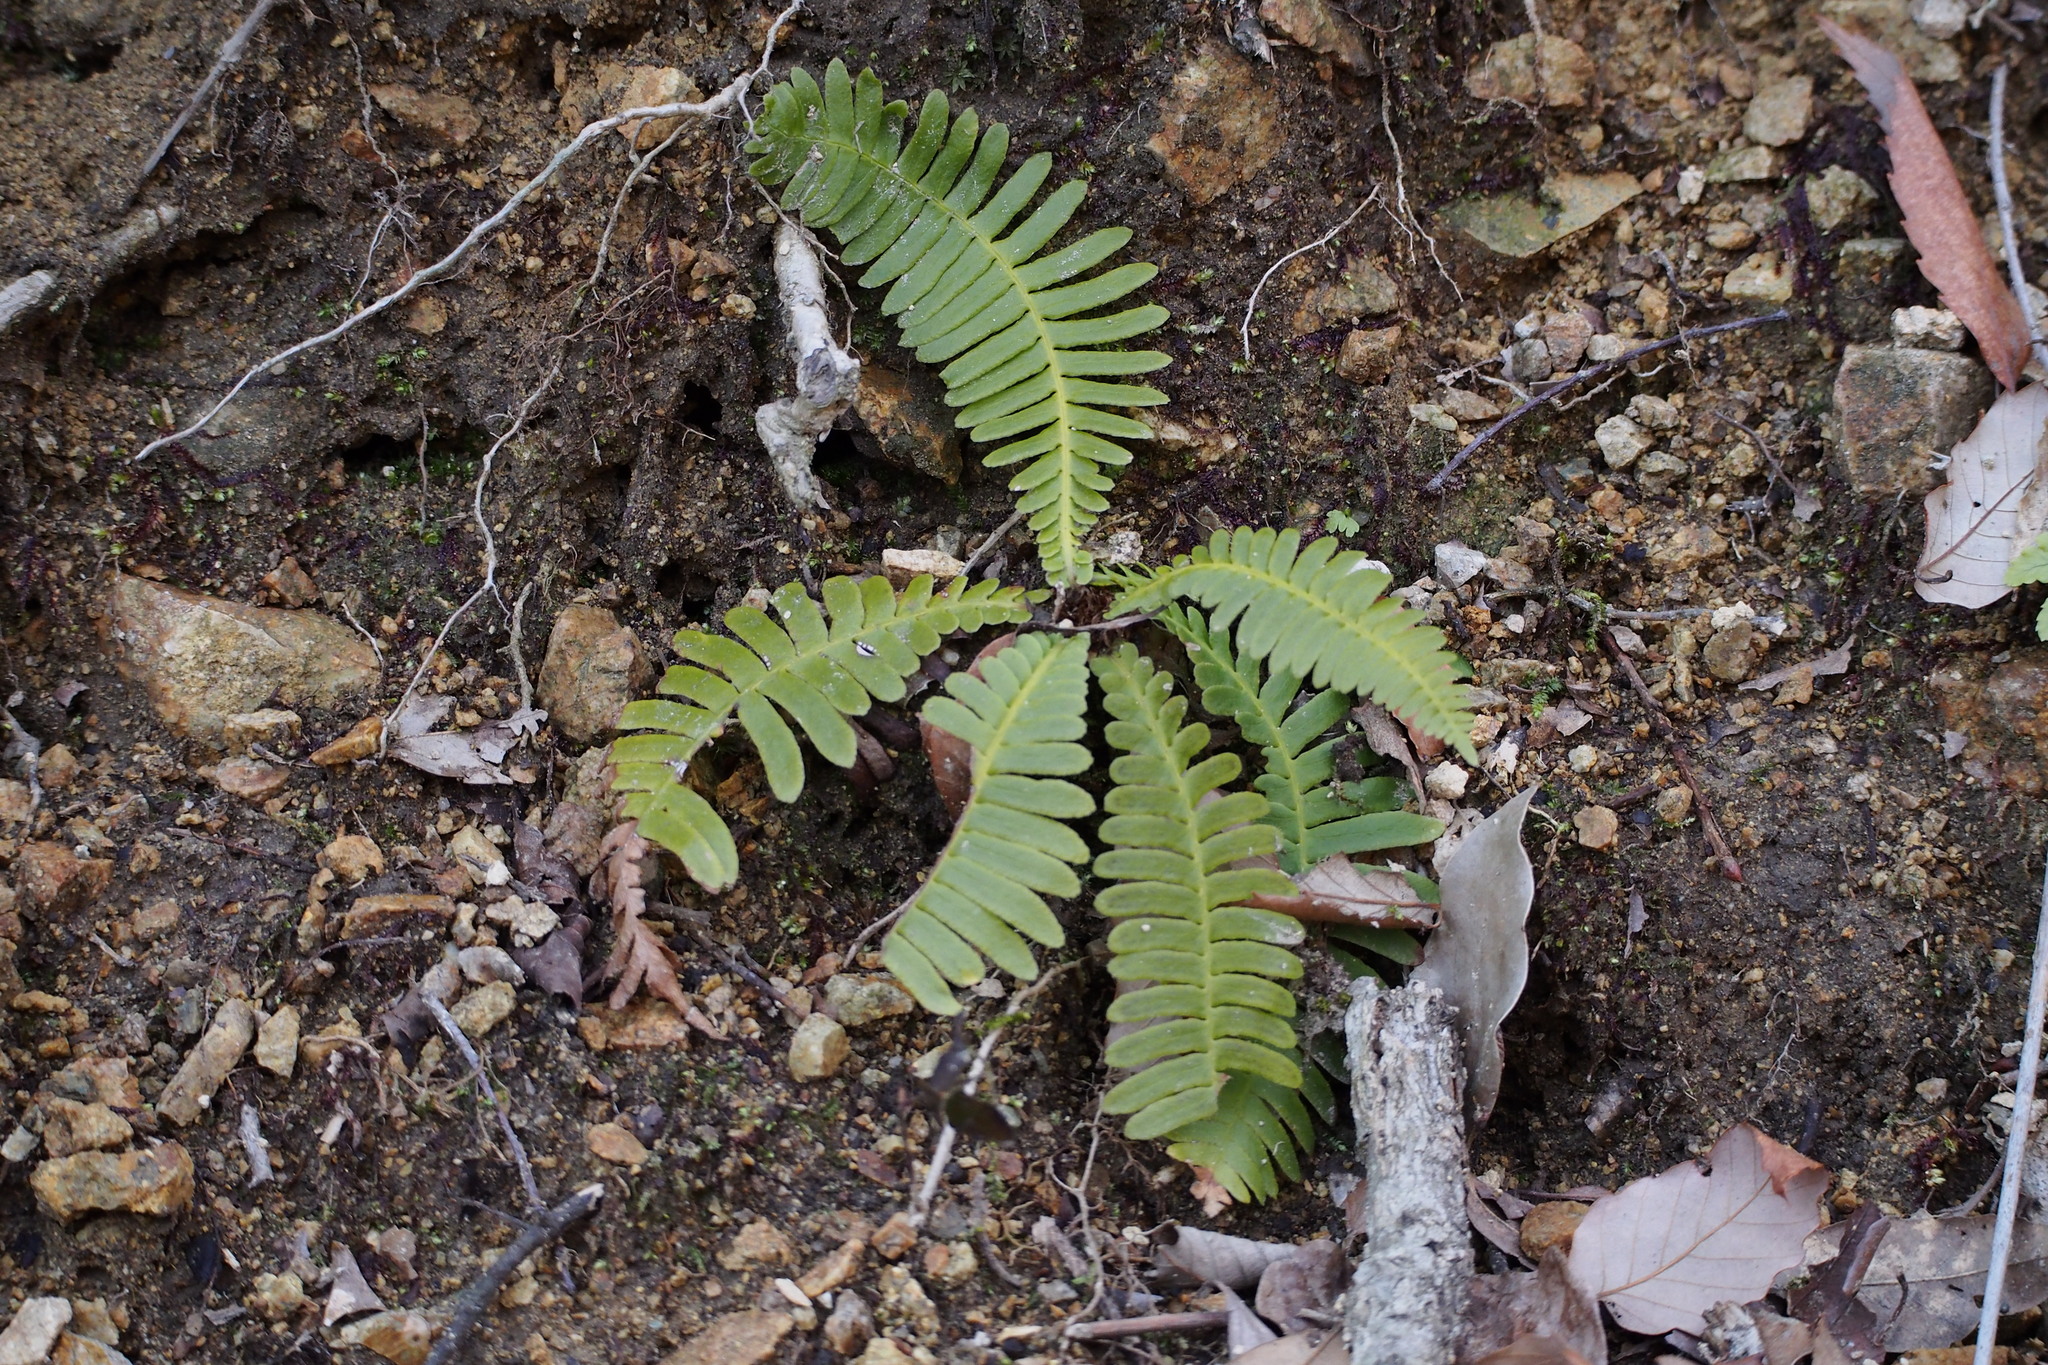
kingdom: Plantae
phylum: Tracheophyta
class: Polypodiopsida
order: Polypodiales
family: Blechnaceae
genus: Spicantopsis
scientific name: Spicantopsis niponica
